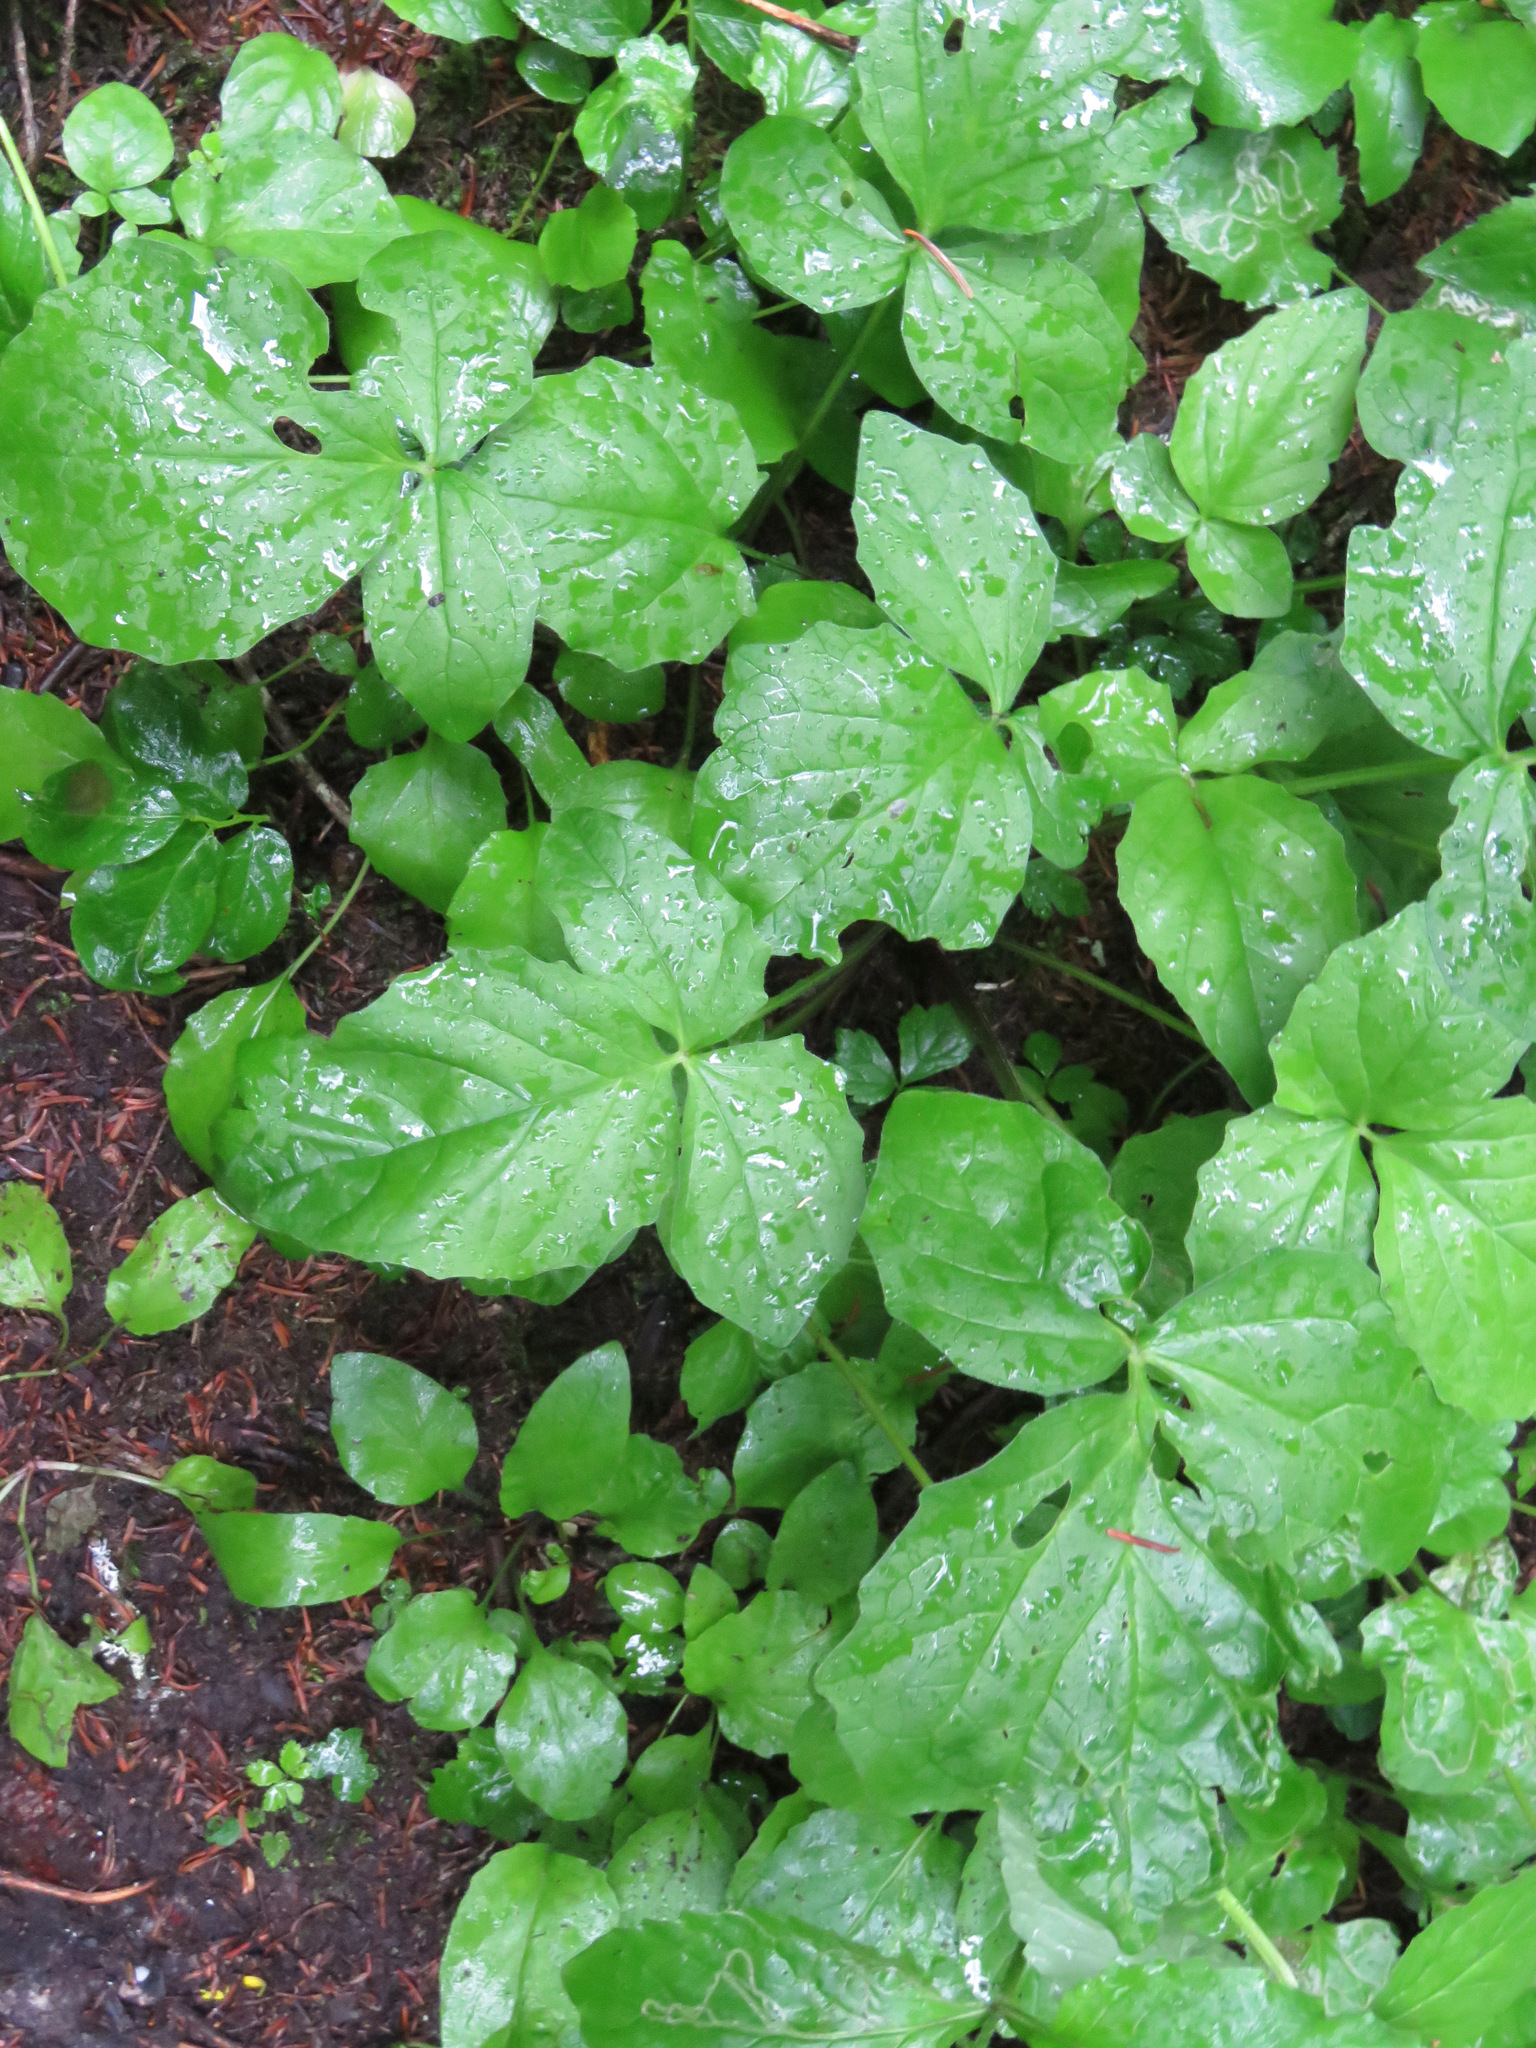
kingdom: Plantae
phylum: Tracheophyta
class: Magnoliopsida
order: Dipsacales
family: Caprifoliaceae
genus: Valeriana
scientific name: Valeriana sitchensis
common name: Pacific valerian
